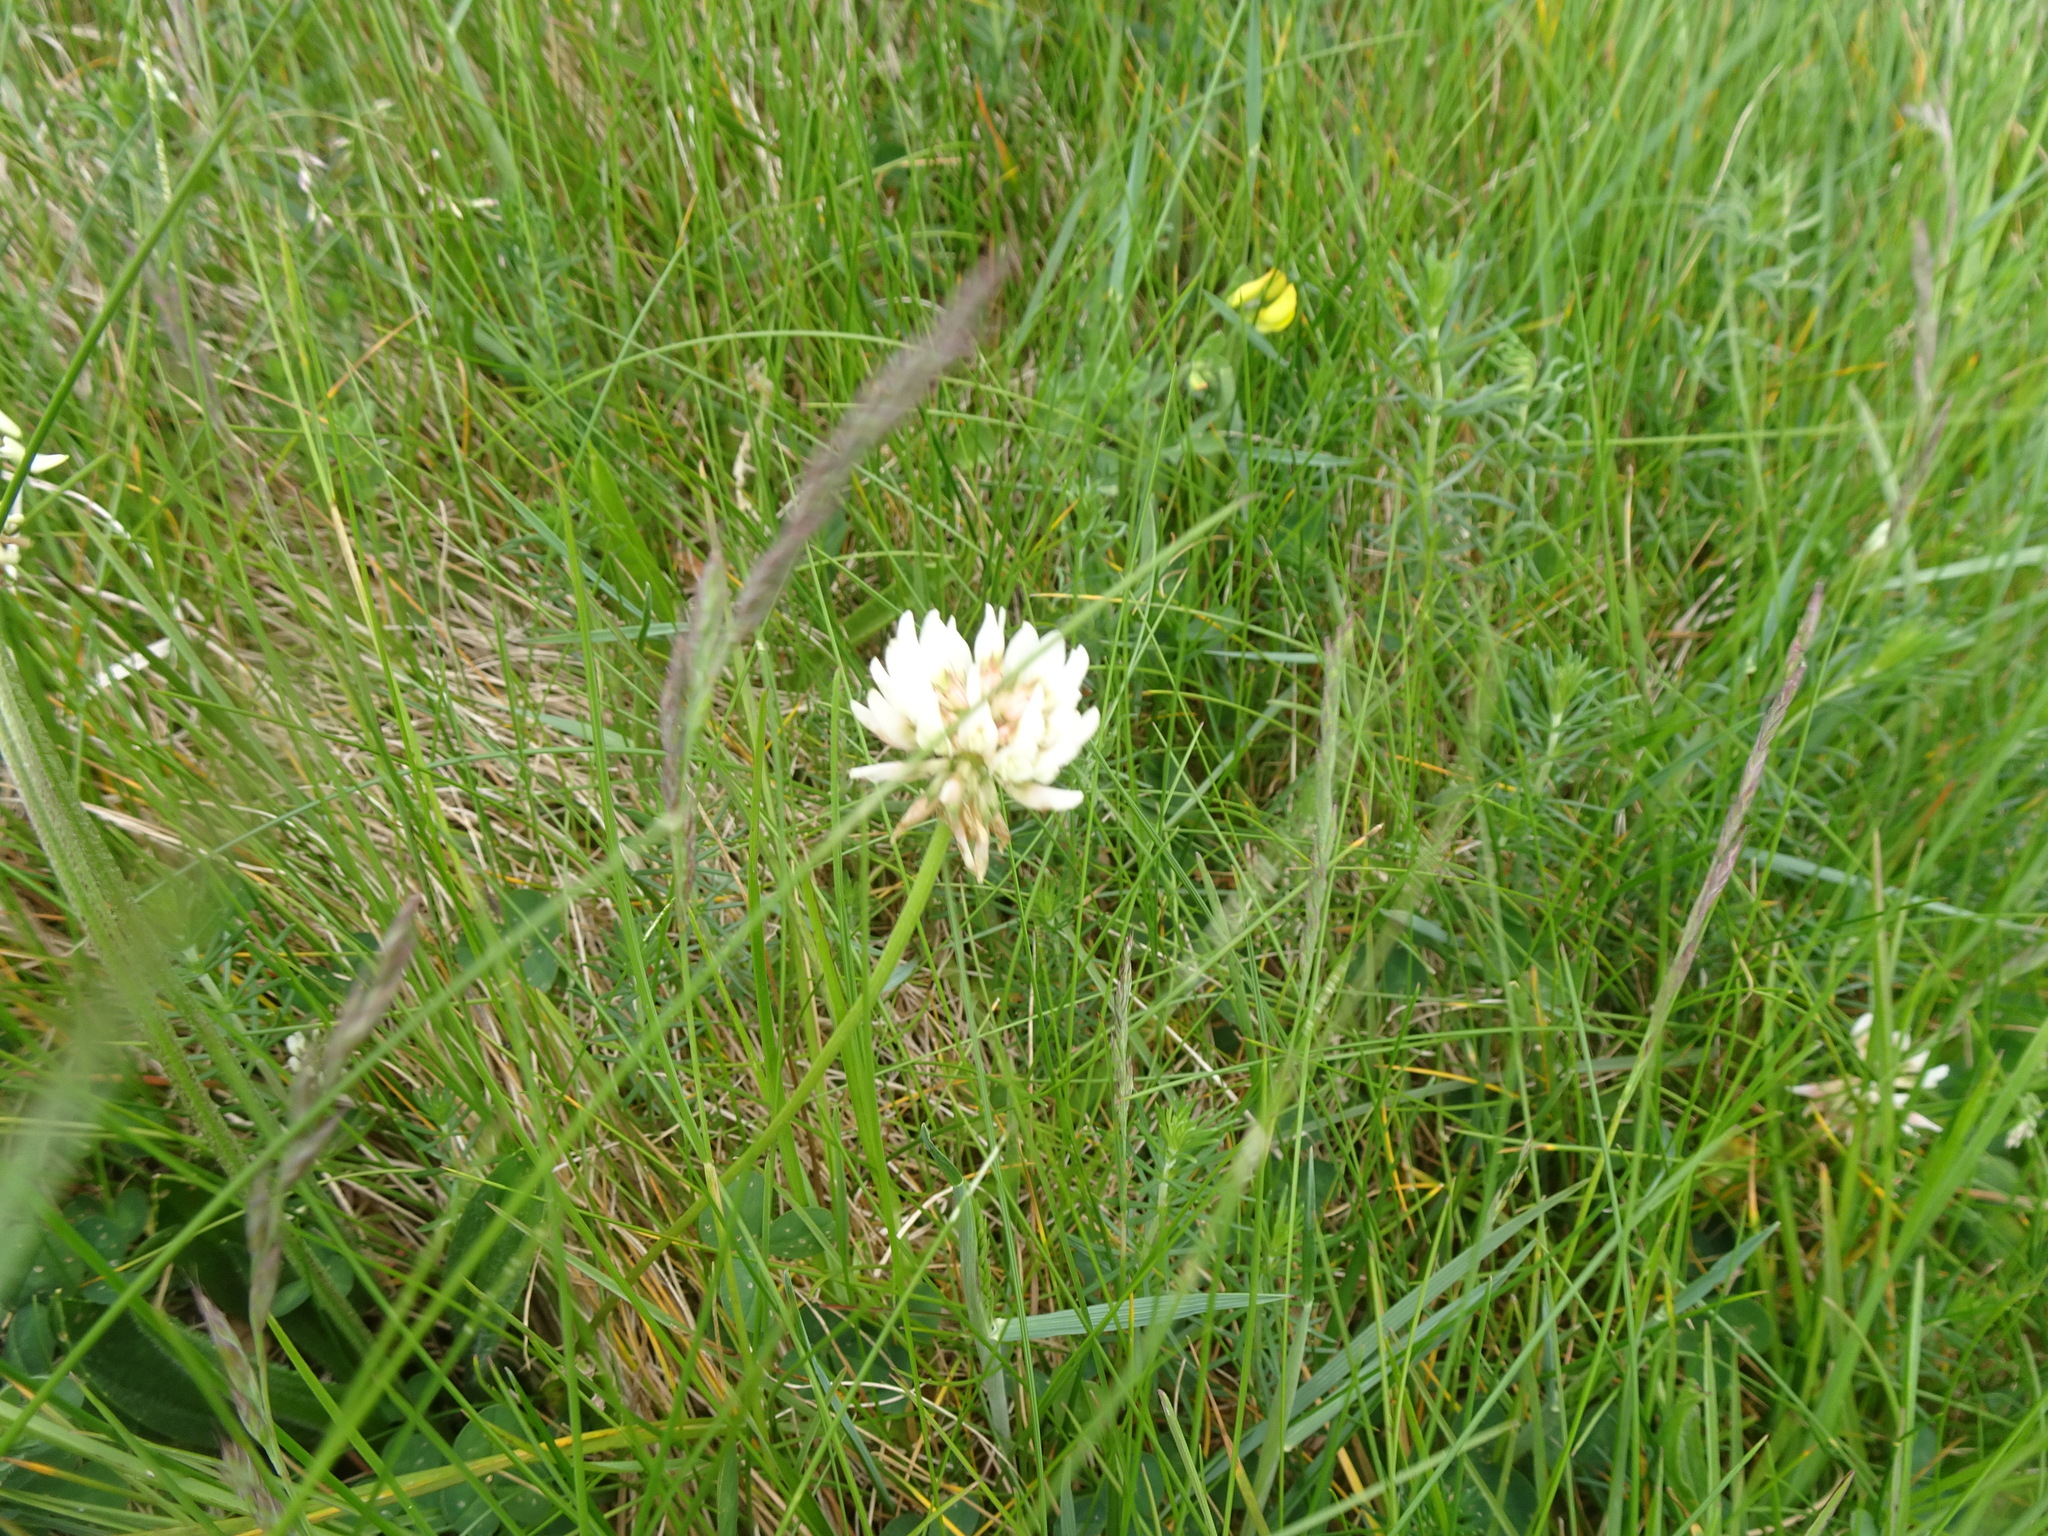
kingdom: Plantae
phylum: Tracheophyta
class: Magnoliopsida
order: Fabales
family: Fabaceae
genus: Trifolium
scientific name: Trifolium repens
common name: White clover
